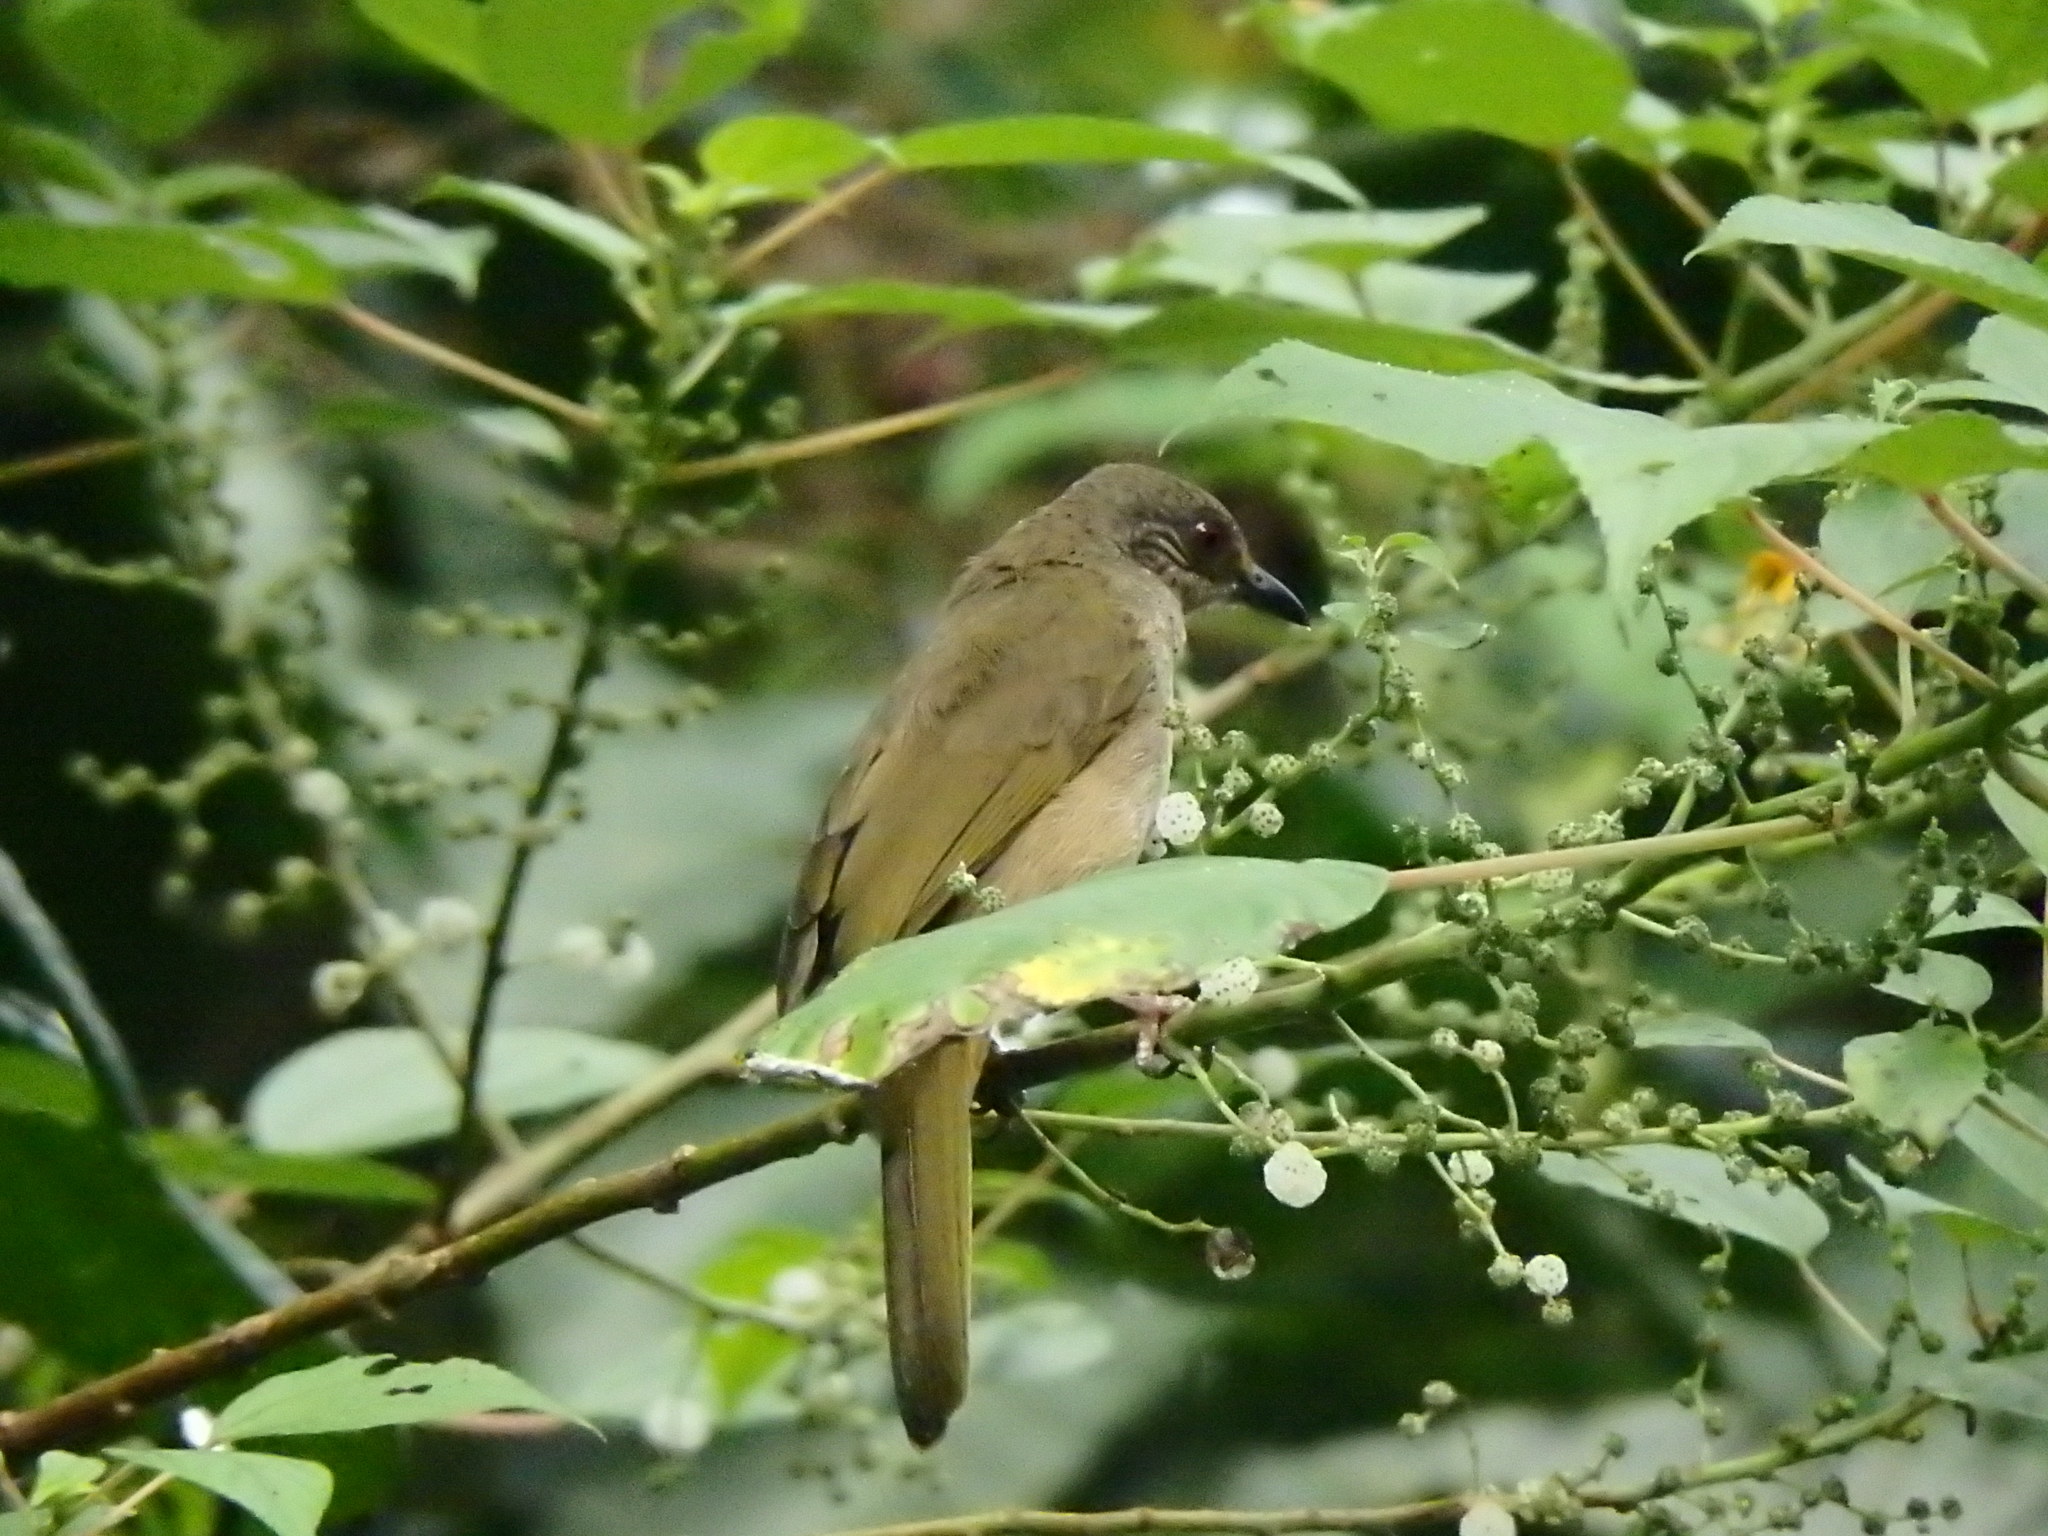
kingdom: Animalia
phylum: Chordata
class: Aves
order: Passeriformes
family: Pycnonotidae
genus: Pycnonotus
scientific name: Pycnonotus plumosus
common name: Olive-winged bulbul
